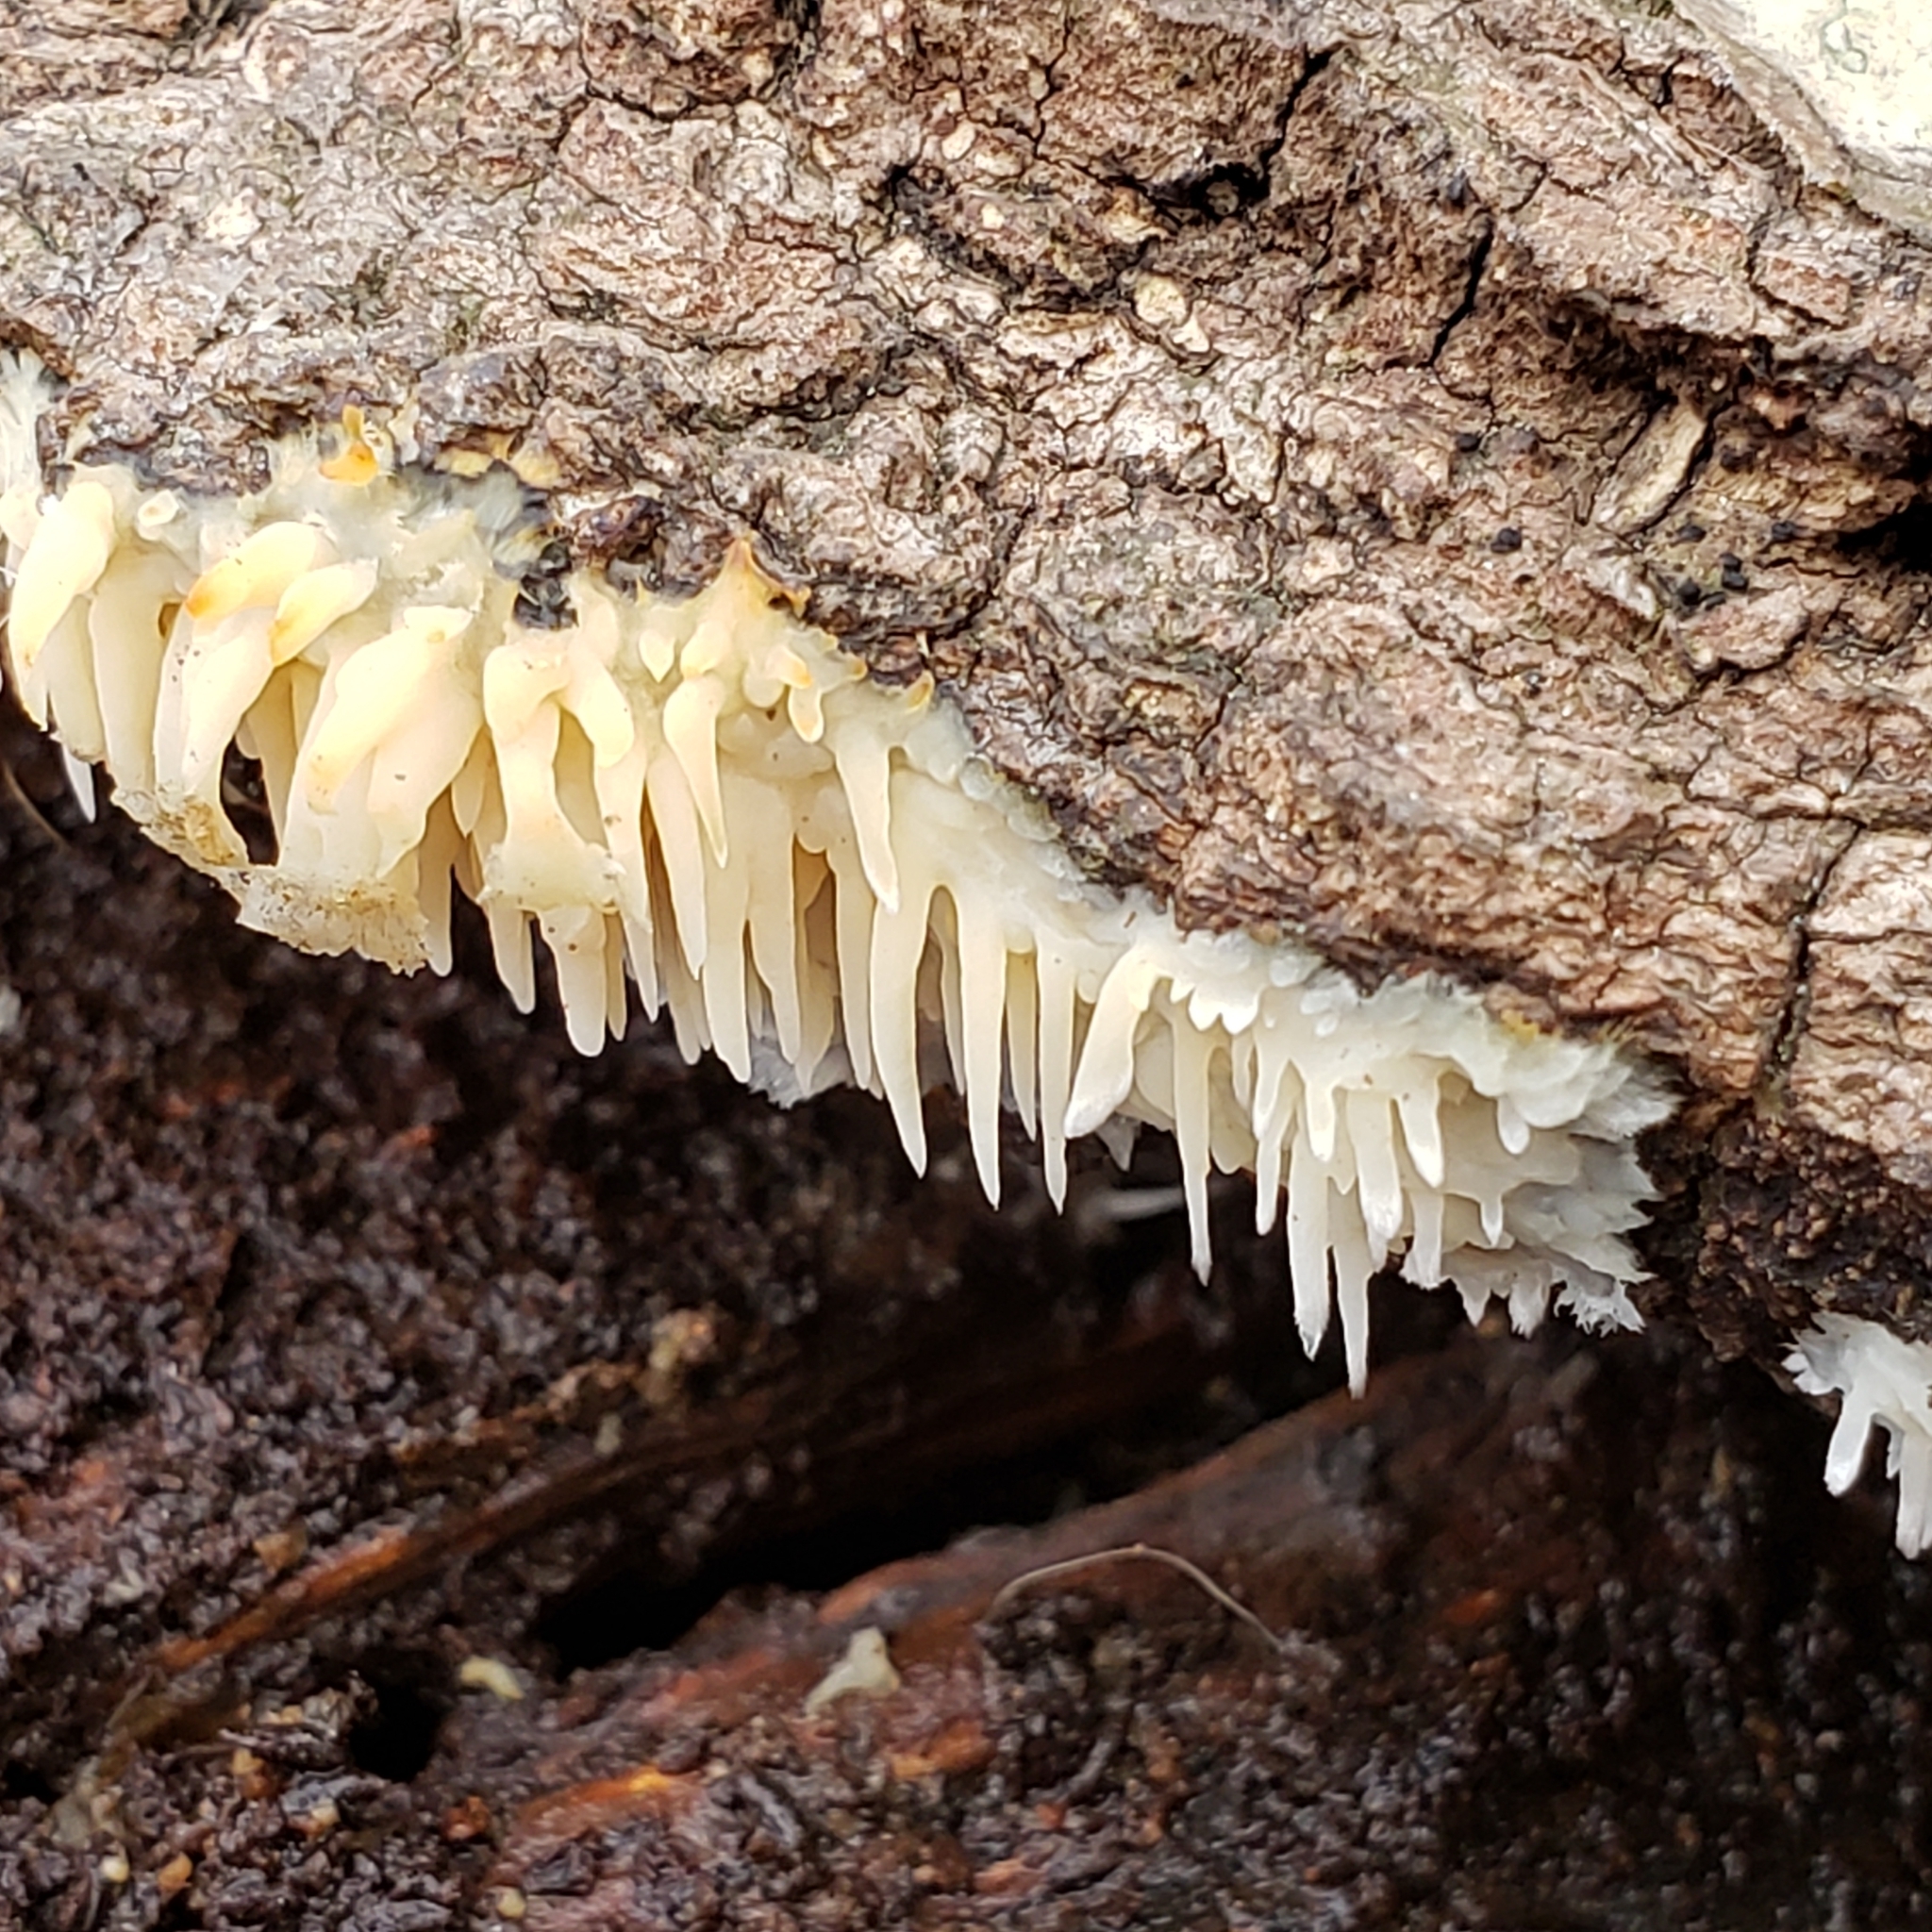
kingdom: Fungi
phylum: Basidiomycota
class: Agaricomycetes
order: Agaricales
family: Radulomycetaceae
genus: Radulomyces
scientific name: Radulomyces copelandii
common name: Asian beauty
